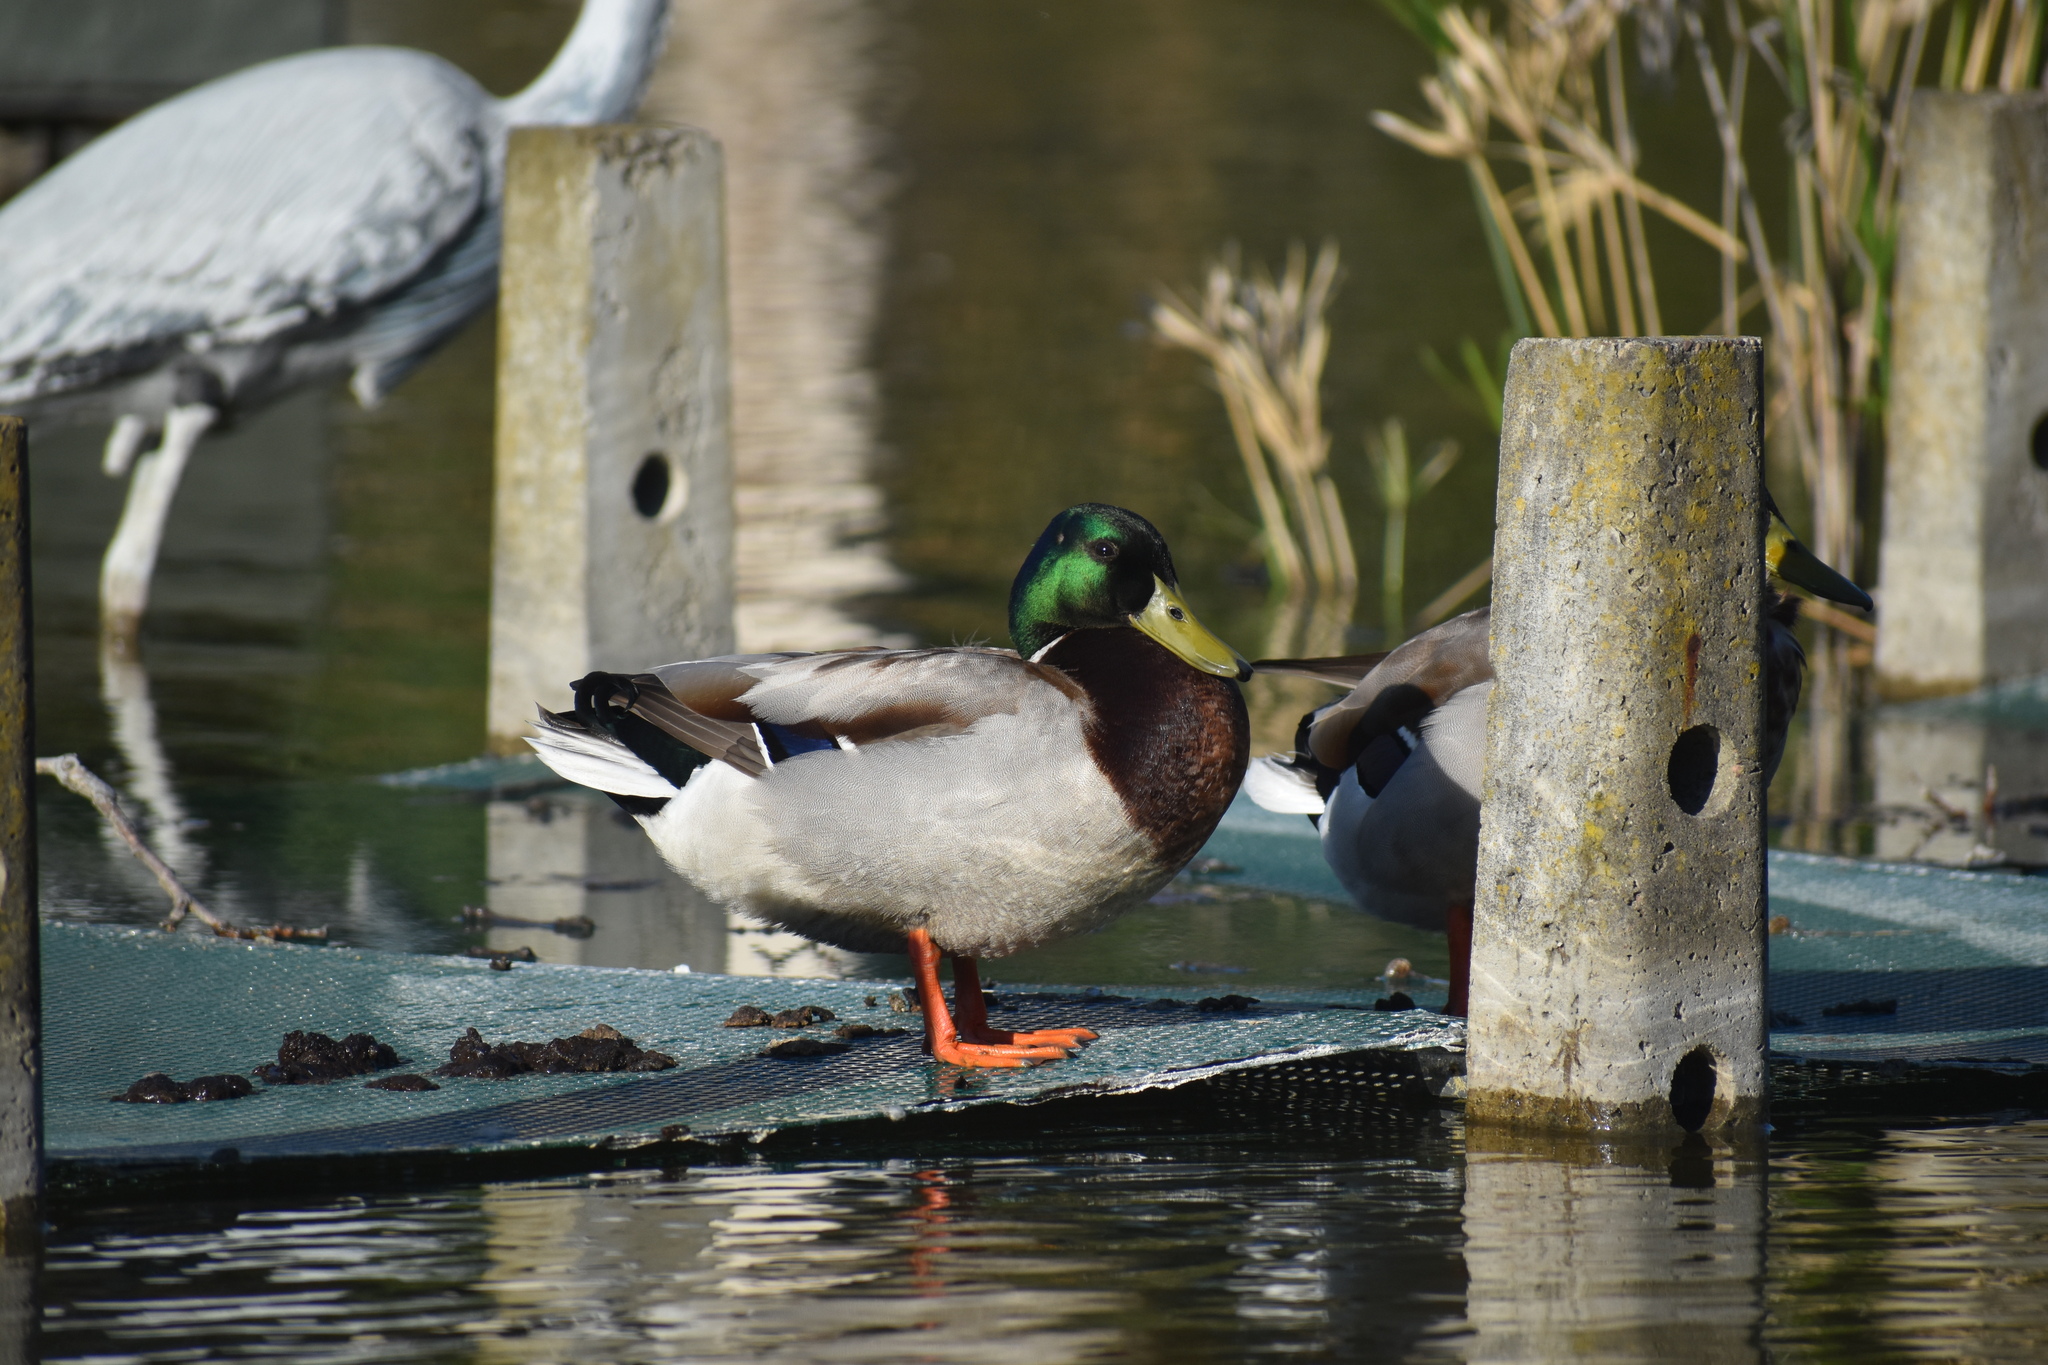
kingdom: Animalia
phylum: Chordata
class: Aves
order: Anseriformes
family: Anatidae
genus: Anas
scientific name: Anas platyrhynchos
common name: Mallard
